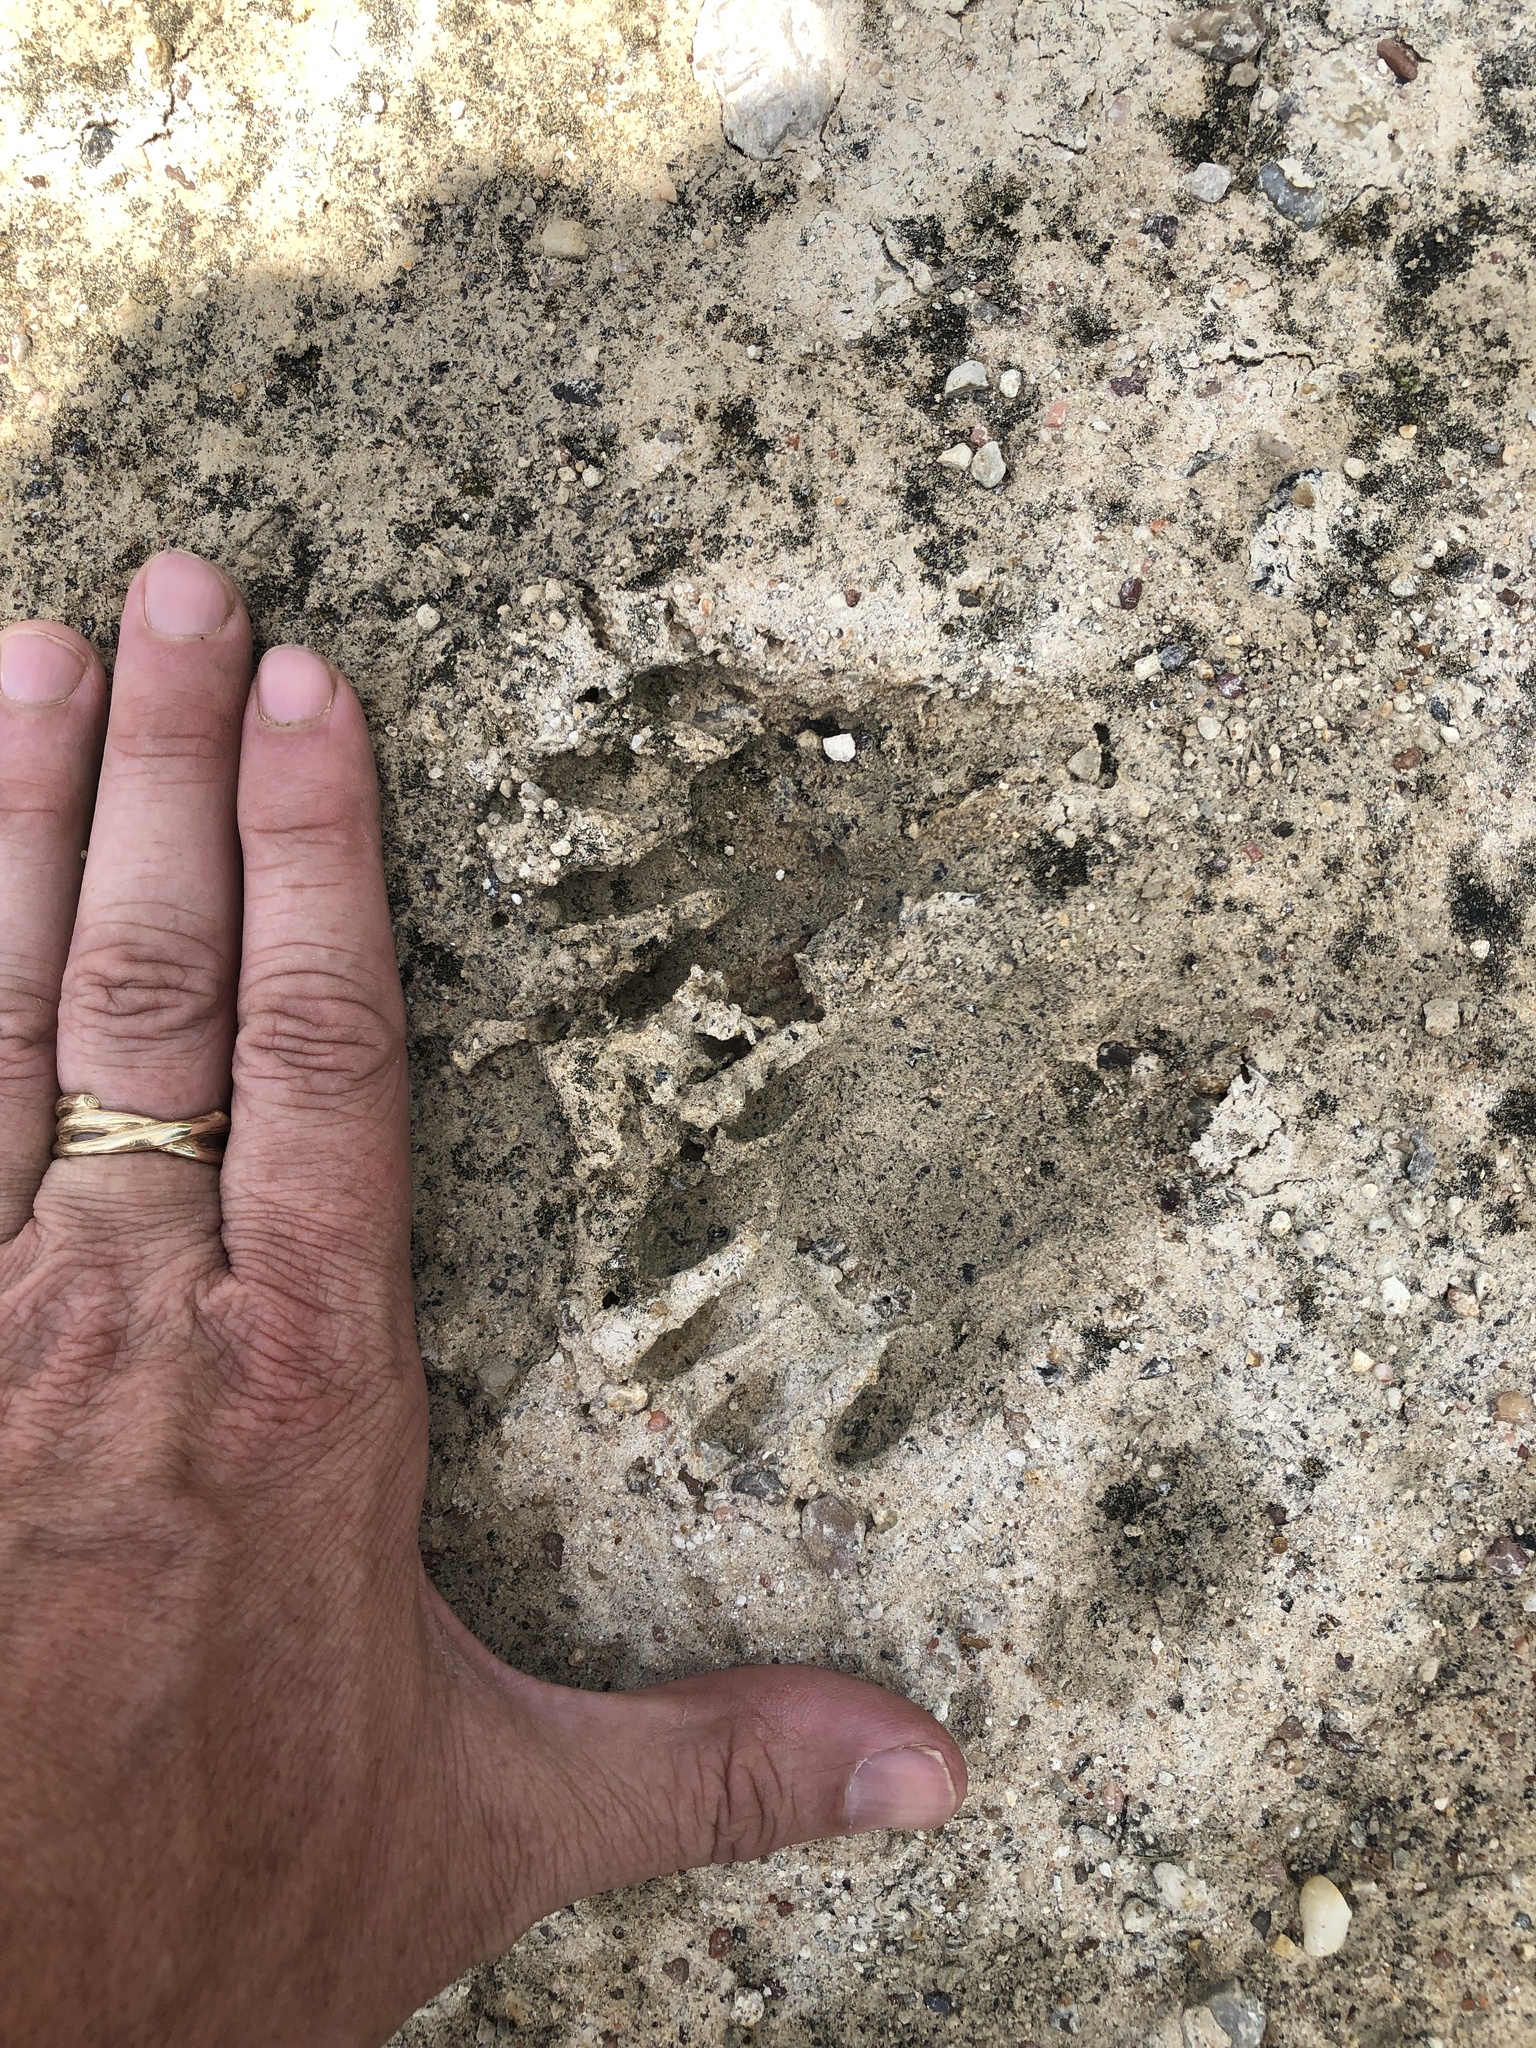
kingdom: Animalia
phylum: Chordata
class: Mammalia
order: Carnivora
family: Procyonidae
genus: Procyon
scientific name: Procyon lotor
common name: Raccoon
